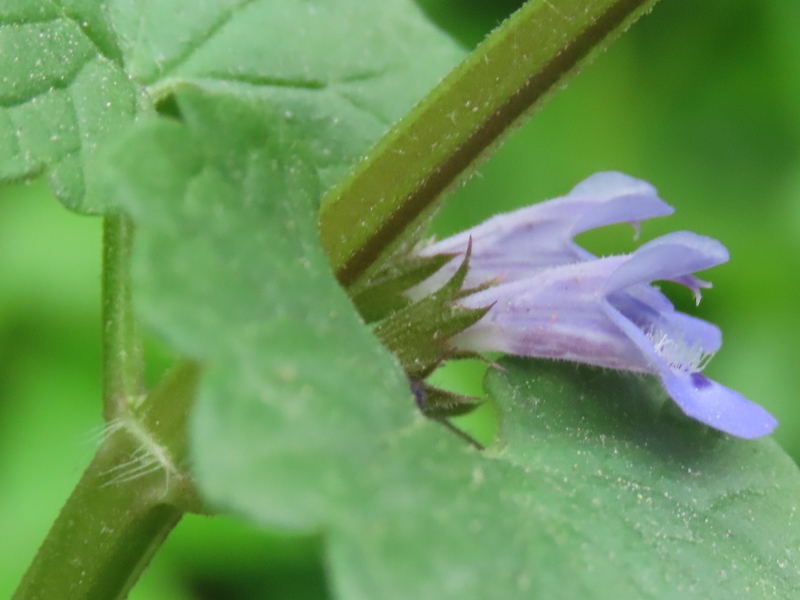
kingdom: Plantae
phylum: Tracheophyta
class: Magnoliopsida
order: Lamiales
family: Lamiaceae
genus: Glechoma
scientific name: Glechoma hederacea
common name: Ground ivy
